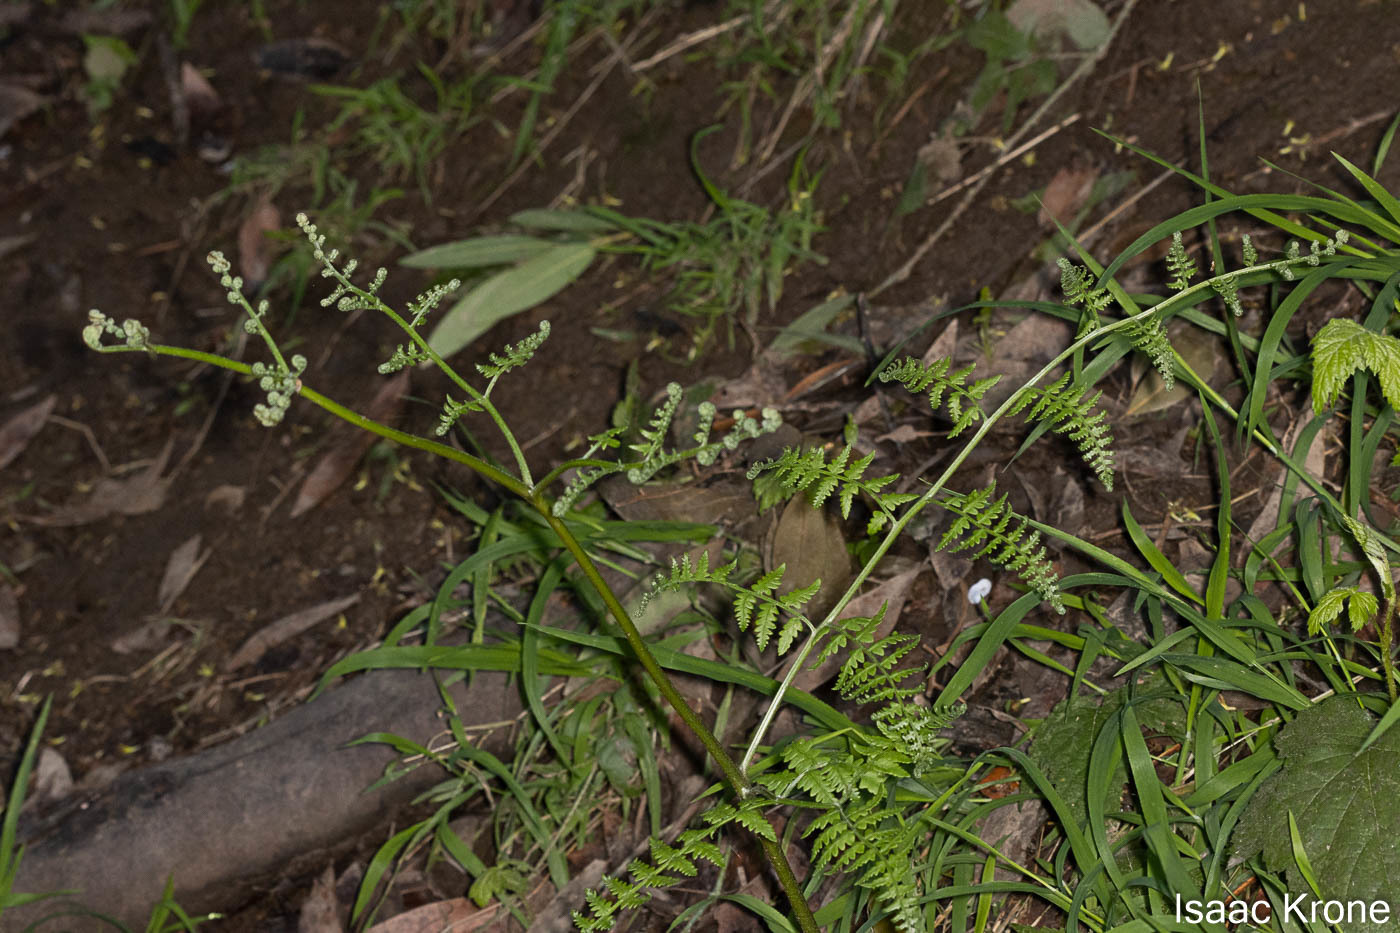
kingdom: Plantae
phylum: Tracheophyta
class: Polypodiopsida
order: Polypodiales
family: Dennstaedtiaceae
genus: Pteridium
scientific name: Pteridium aquilinum
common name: Bracken
